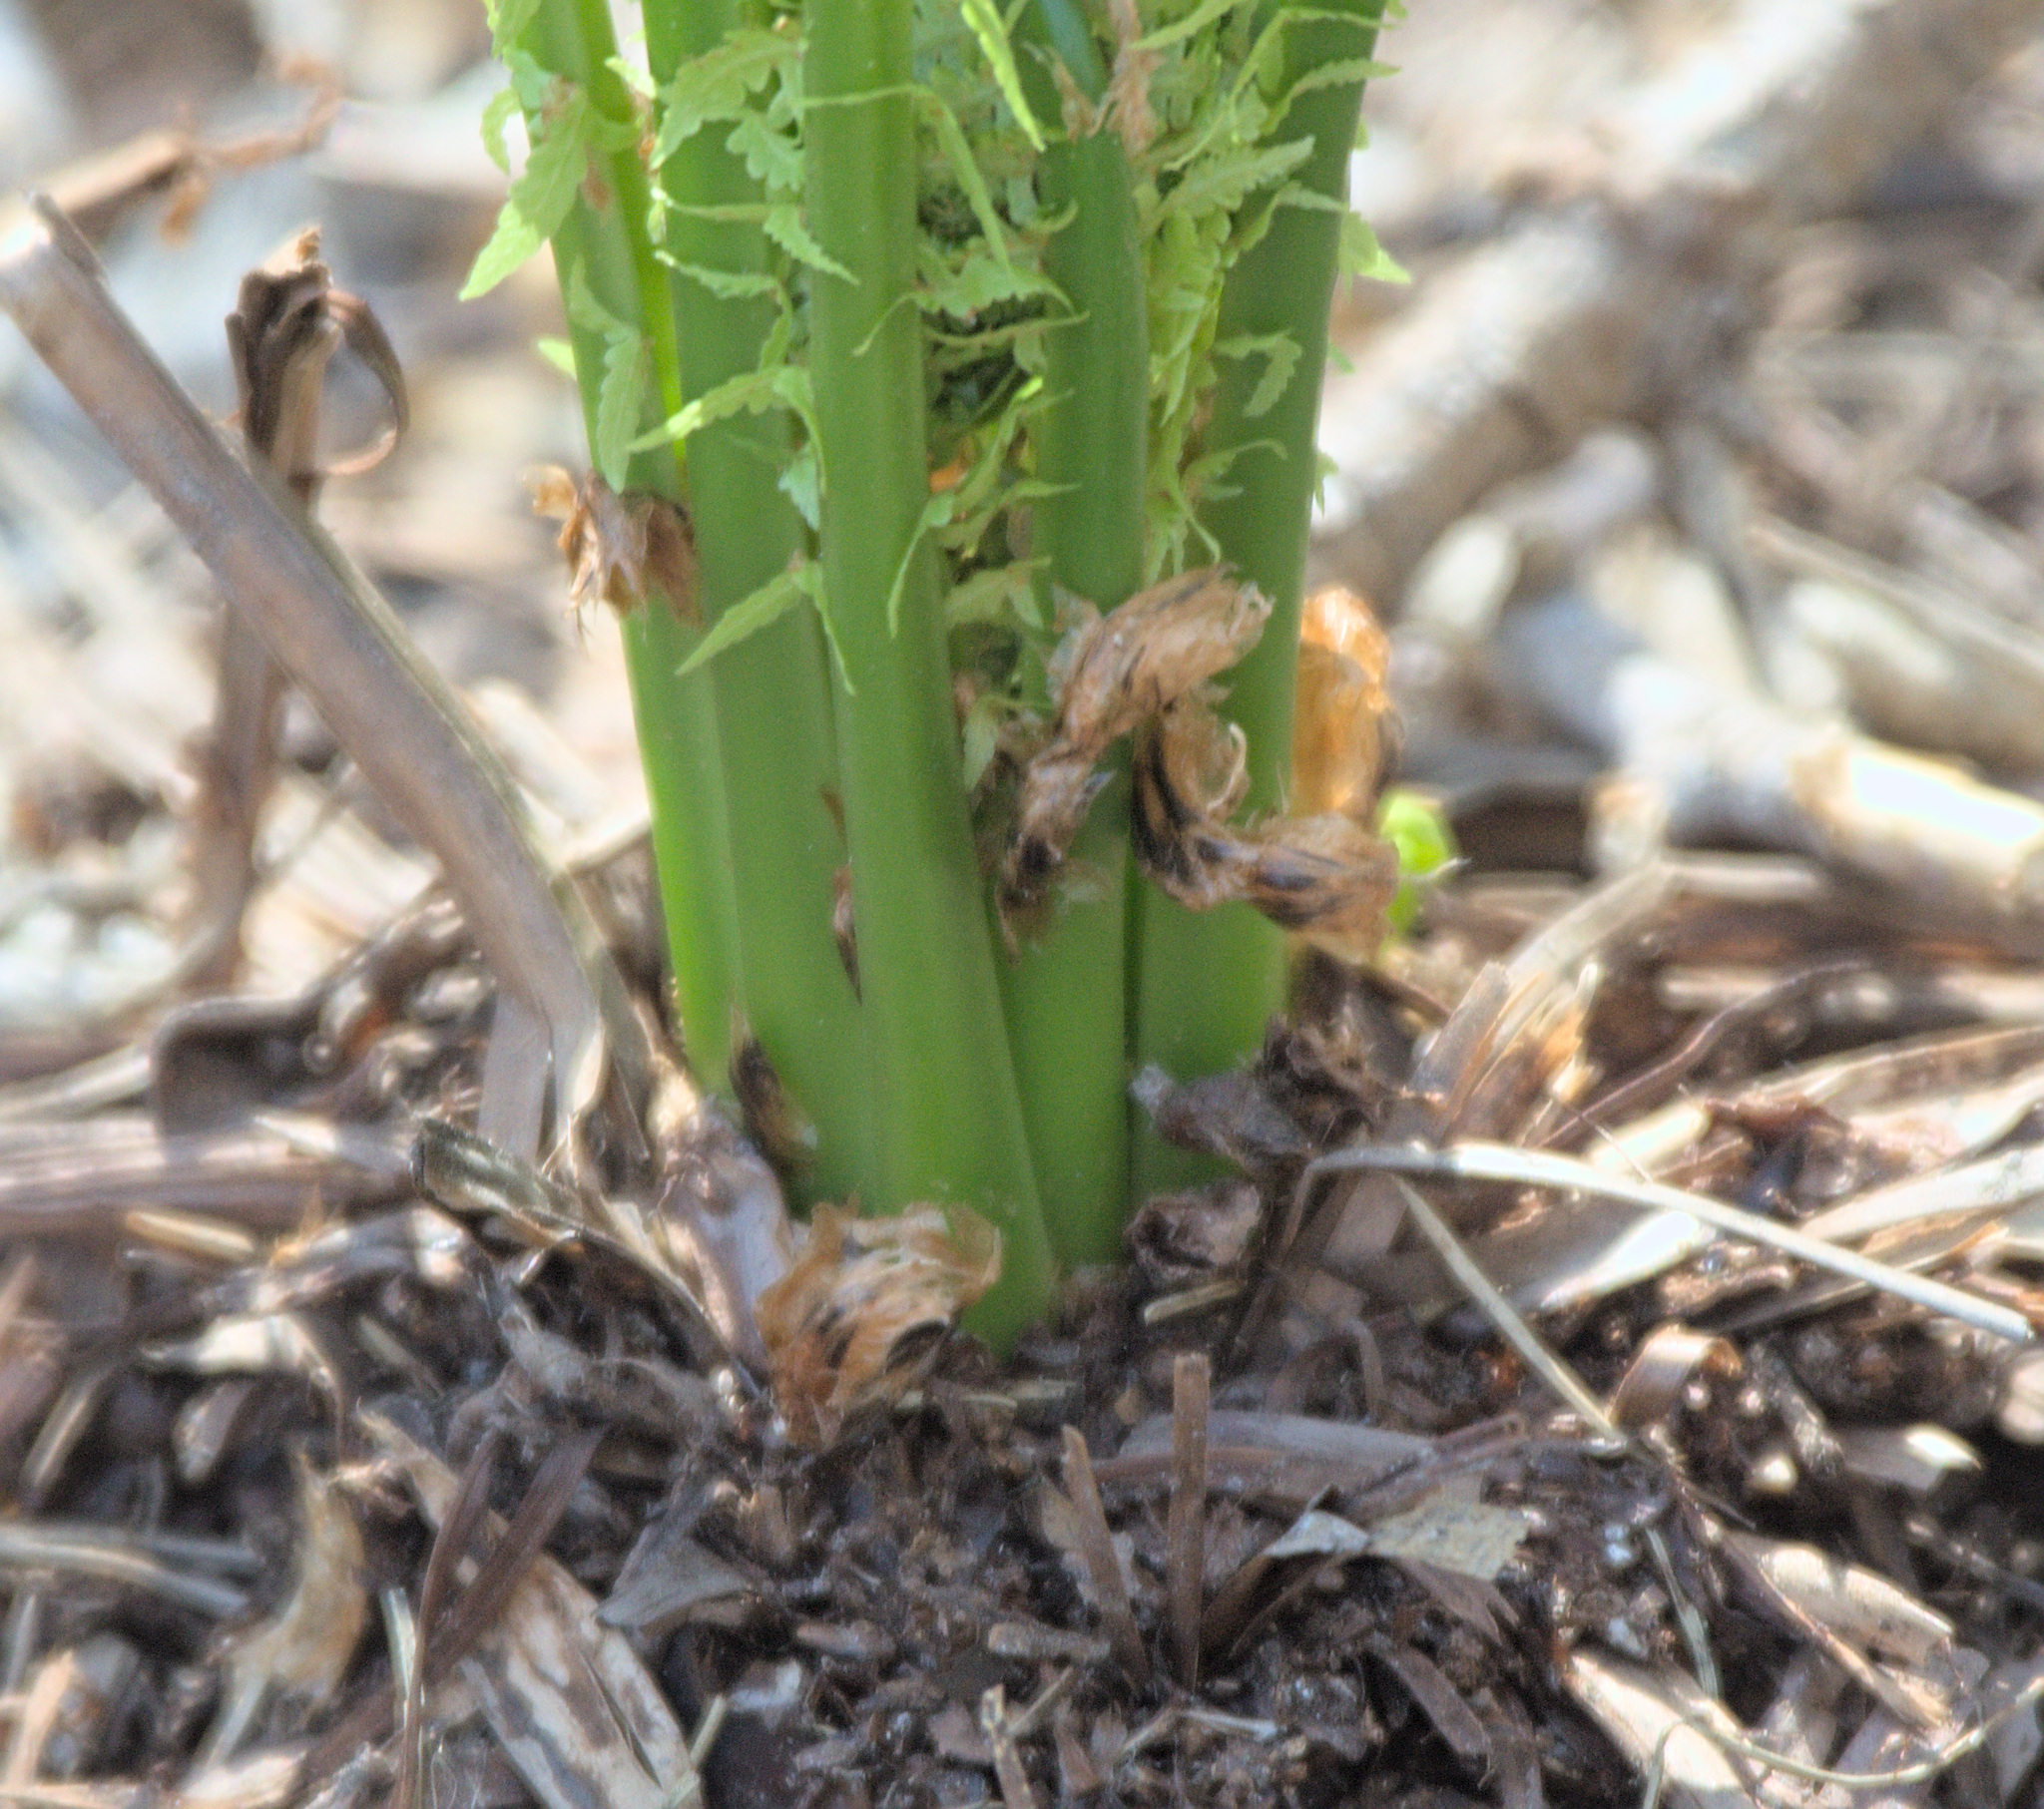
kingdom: Plantae
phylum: Tracheophyta
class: Polypodiopsida
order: Polypodiales
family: Onocleaceae
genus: Matteuccia
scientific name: Matteuccia struthiopteris
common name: Ostrich fern
